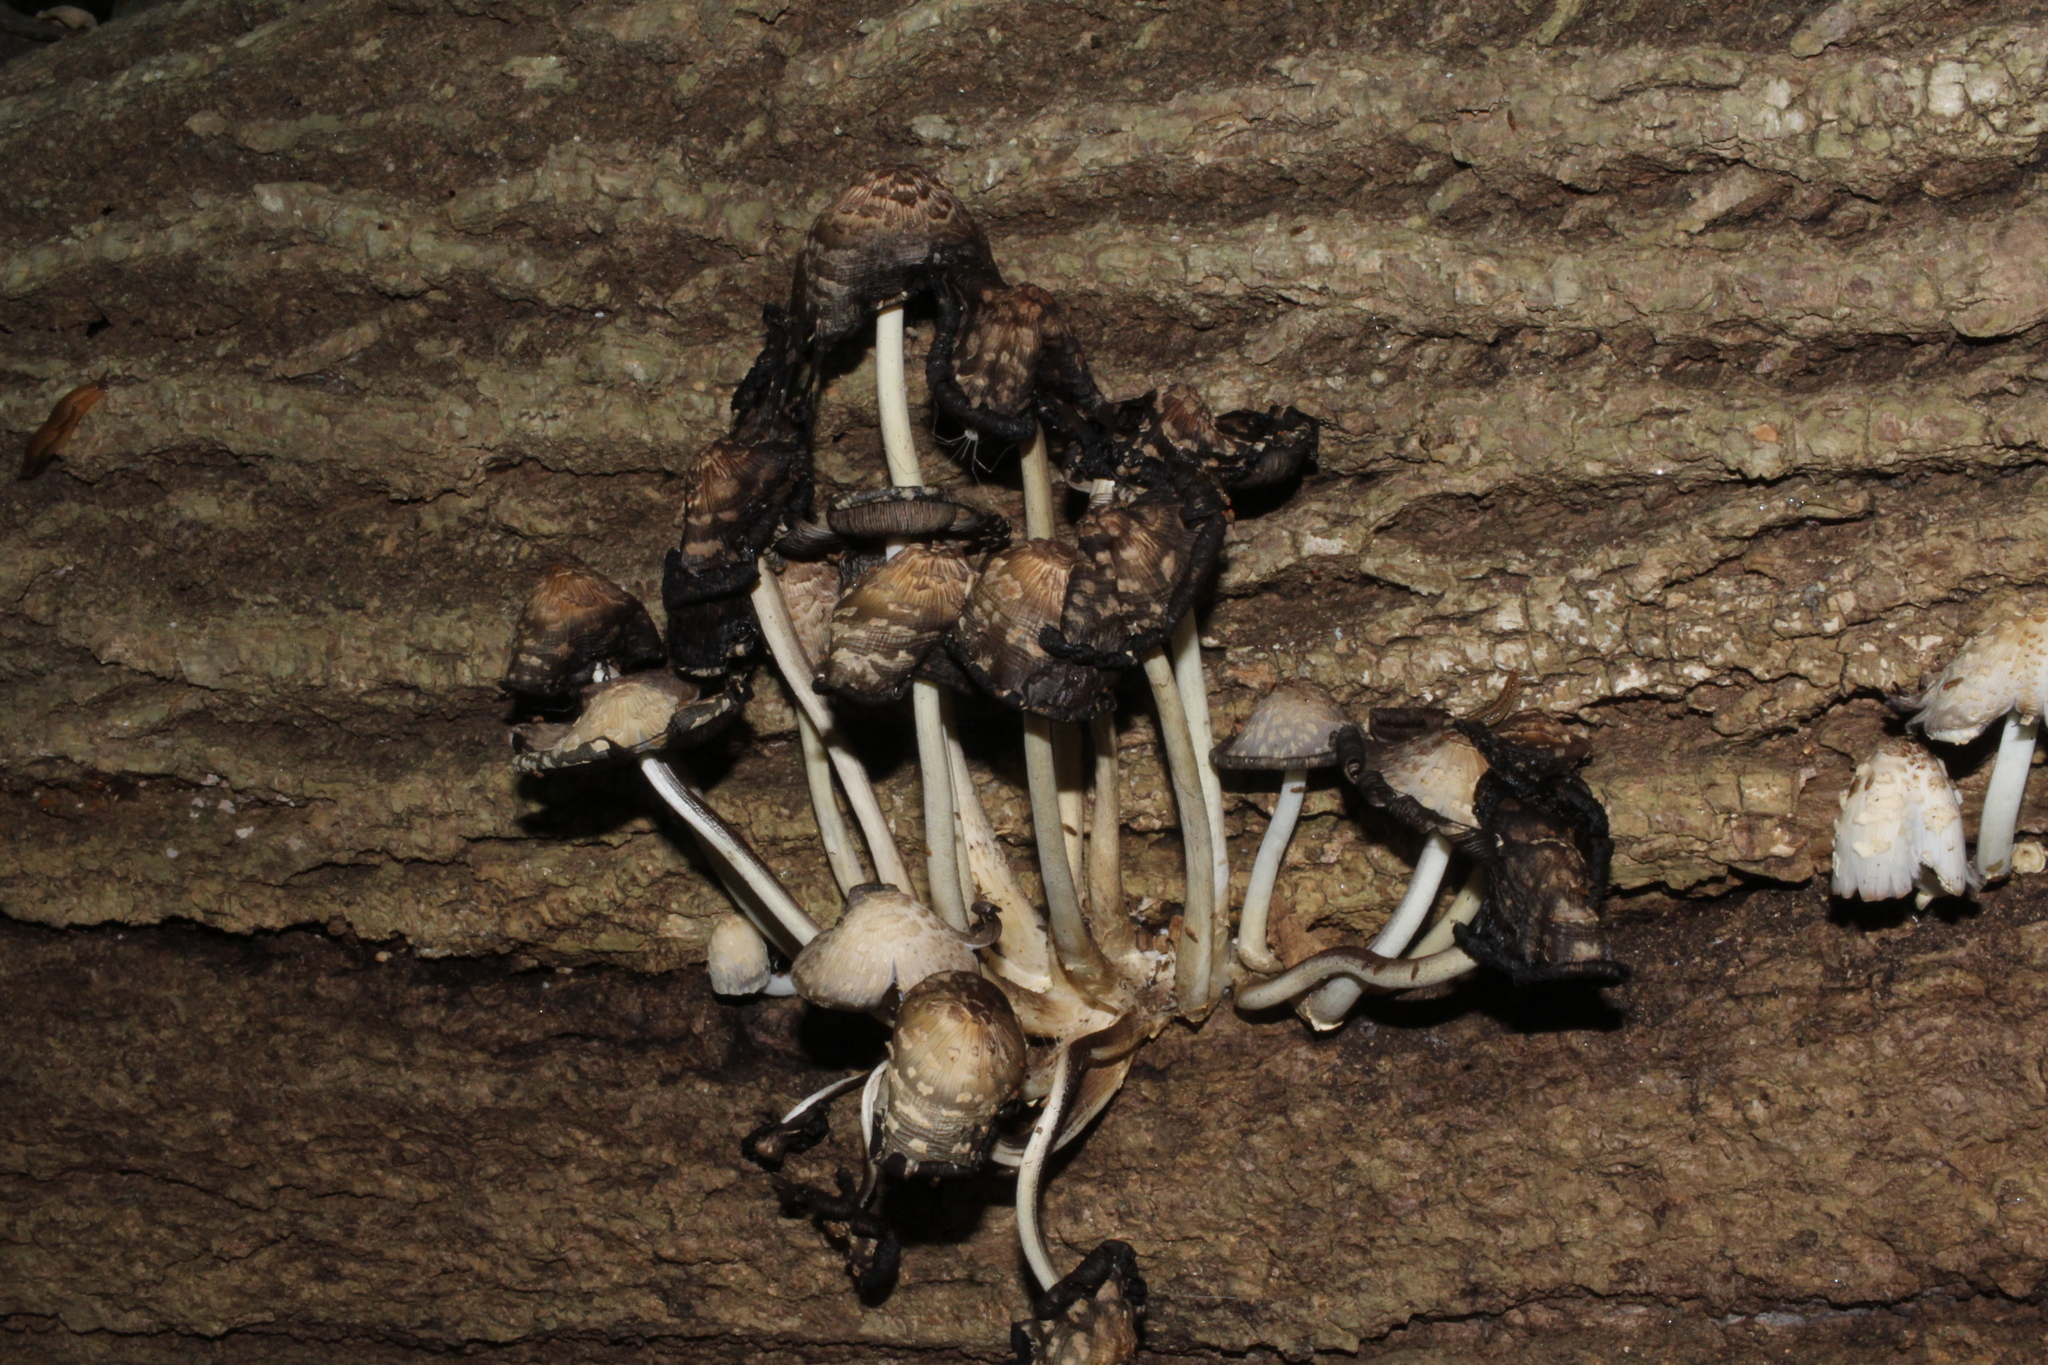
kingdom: Fungi
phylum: Basidiomycota
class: Agaricomycetes
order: Agaricales
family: Psathyrellaceae
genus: Coprinopsis
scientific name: Coprinopsis variegata
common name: Scaly ink cap
